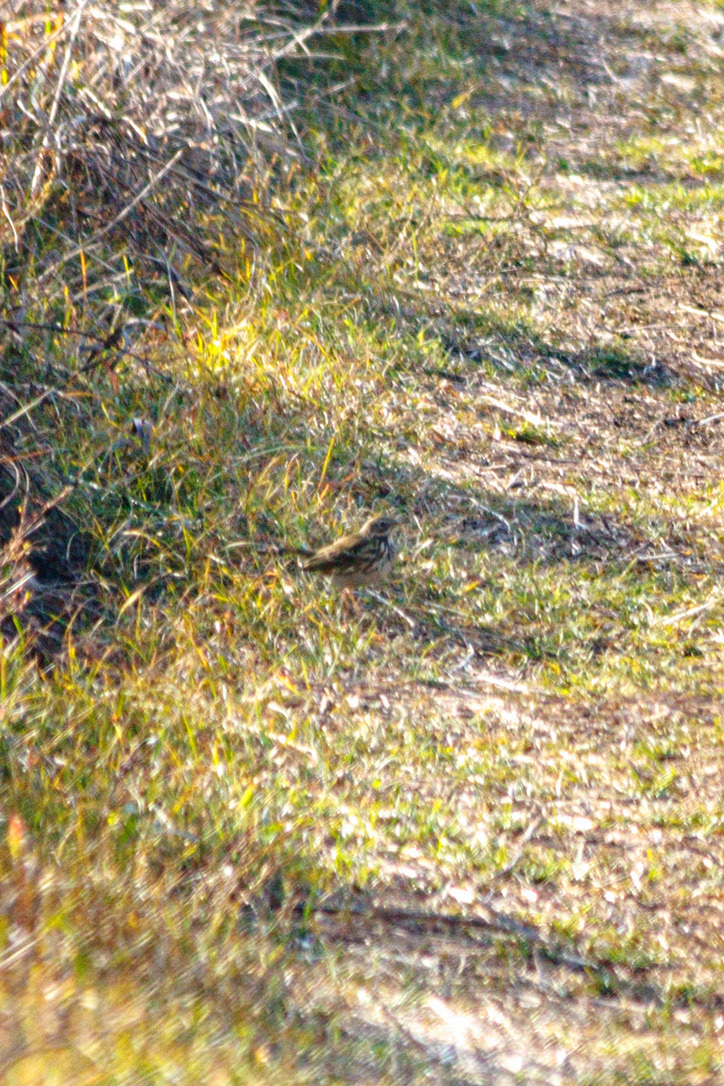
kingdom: Animalia
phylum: Chordata
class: Aves
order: Passeriformes
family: Motacillidae
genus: Anthus
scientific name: Anthus pratensis
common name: Meadow pipit
